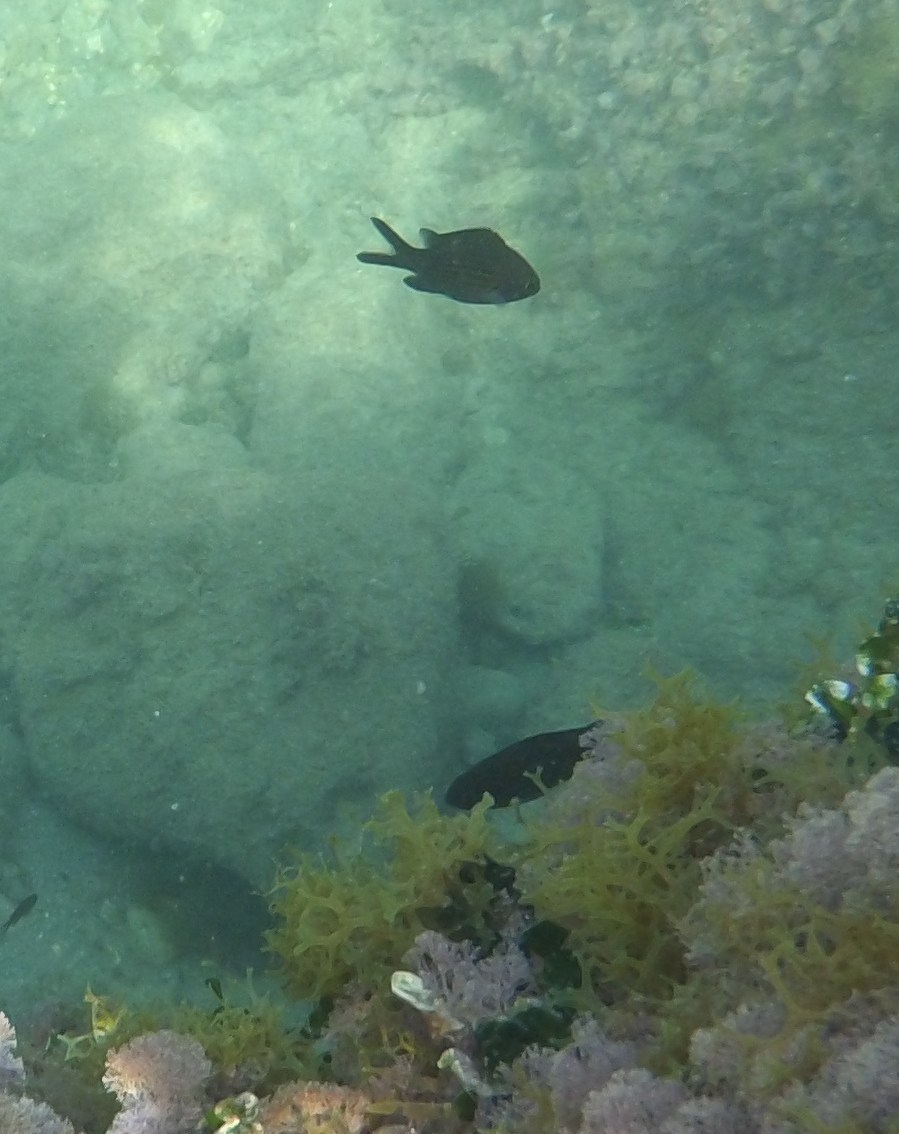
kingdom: Animalia
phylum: Chordata
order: Perciformes
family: Pomacentridae
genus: Chromis
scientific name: Chromis chromis
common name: Damselfish
